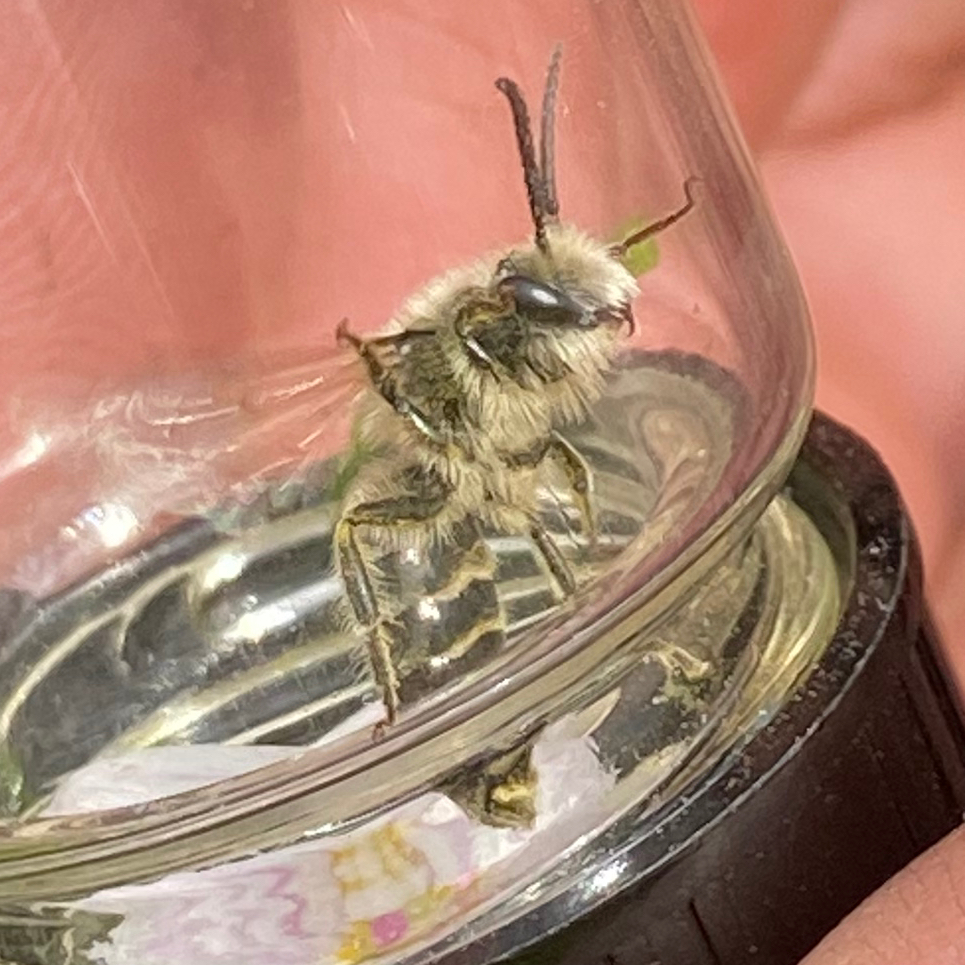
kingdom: Animalia
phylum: Arthropoda
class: Insecta
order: Hymenoptera
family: Colletidae
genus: Colletes
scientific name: Colletes inaequalis
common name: Unequal cellophane bee
